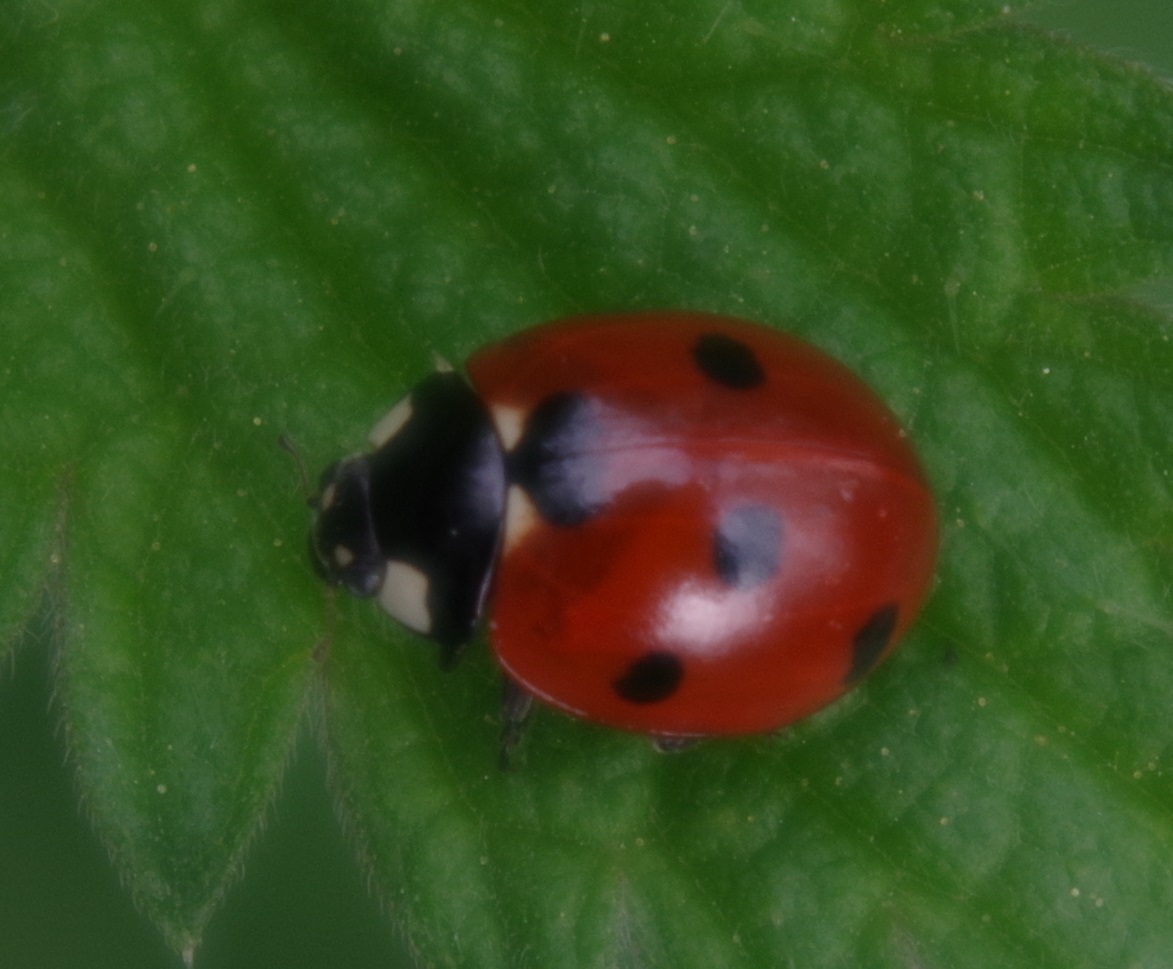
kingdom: Animalia
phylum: Arthropoda
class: Insecta
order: Coleoptera
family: Coccinellidae
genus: Coccinella
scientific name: Coccinella septempunctata
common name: Sevenspotted lady beetle
